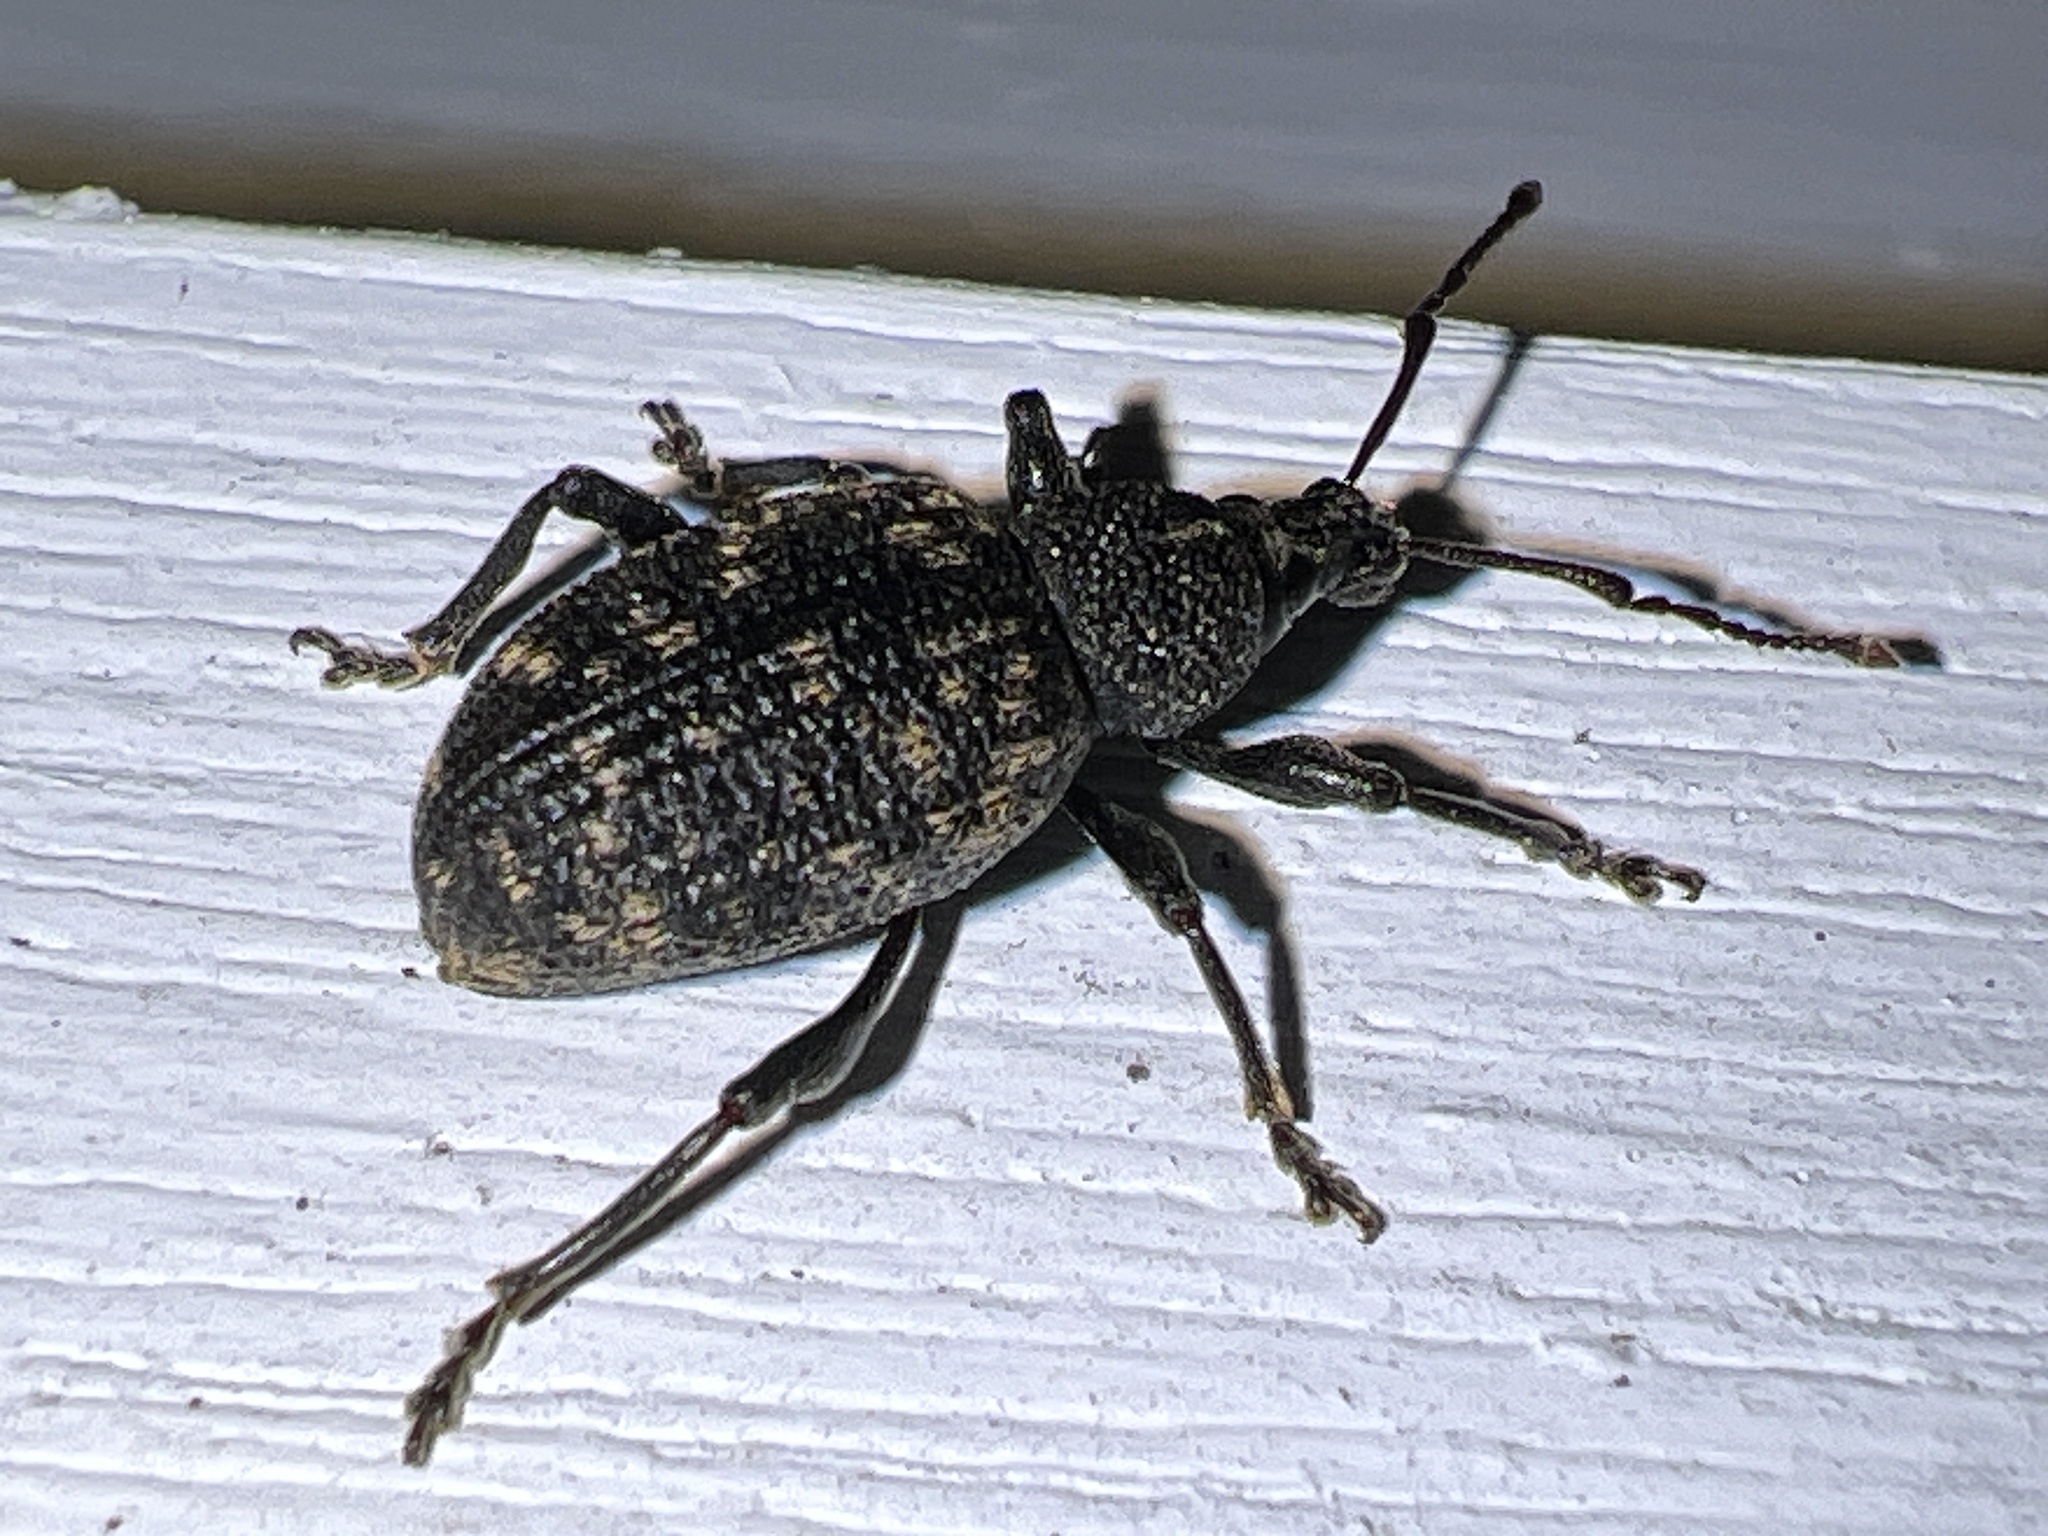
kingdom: Animalia
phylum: Arthropoda
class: Insecta
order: Coleoptera
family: Curculionidae
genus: Otiorhynchus
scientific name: Otiorhynchus sulcatus
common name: Black vine weevil
